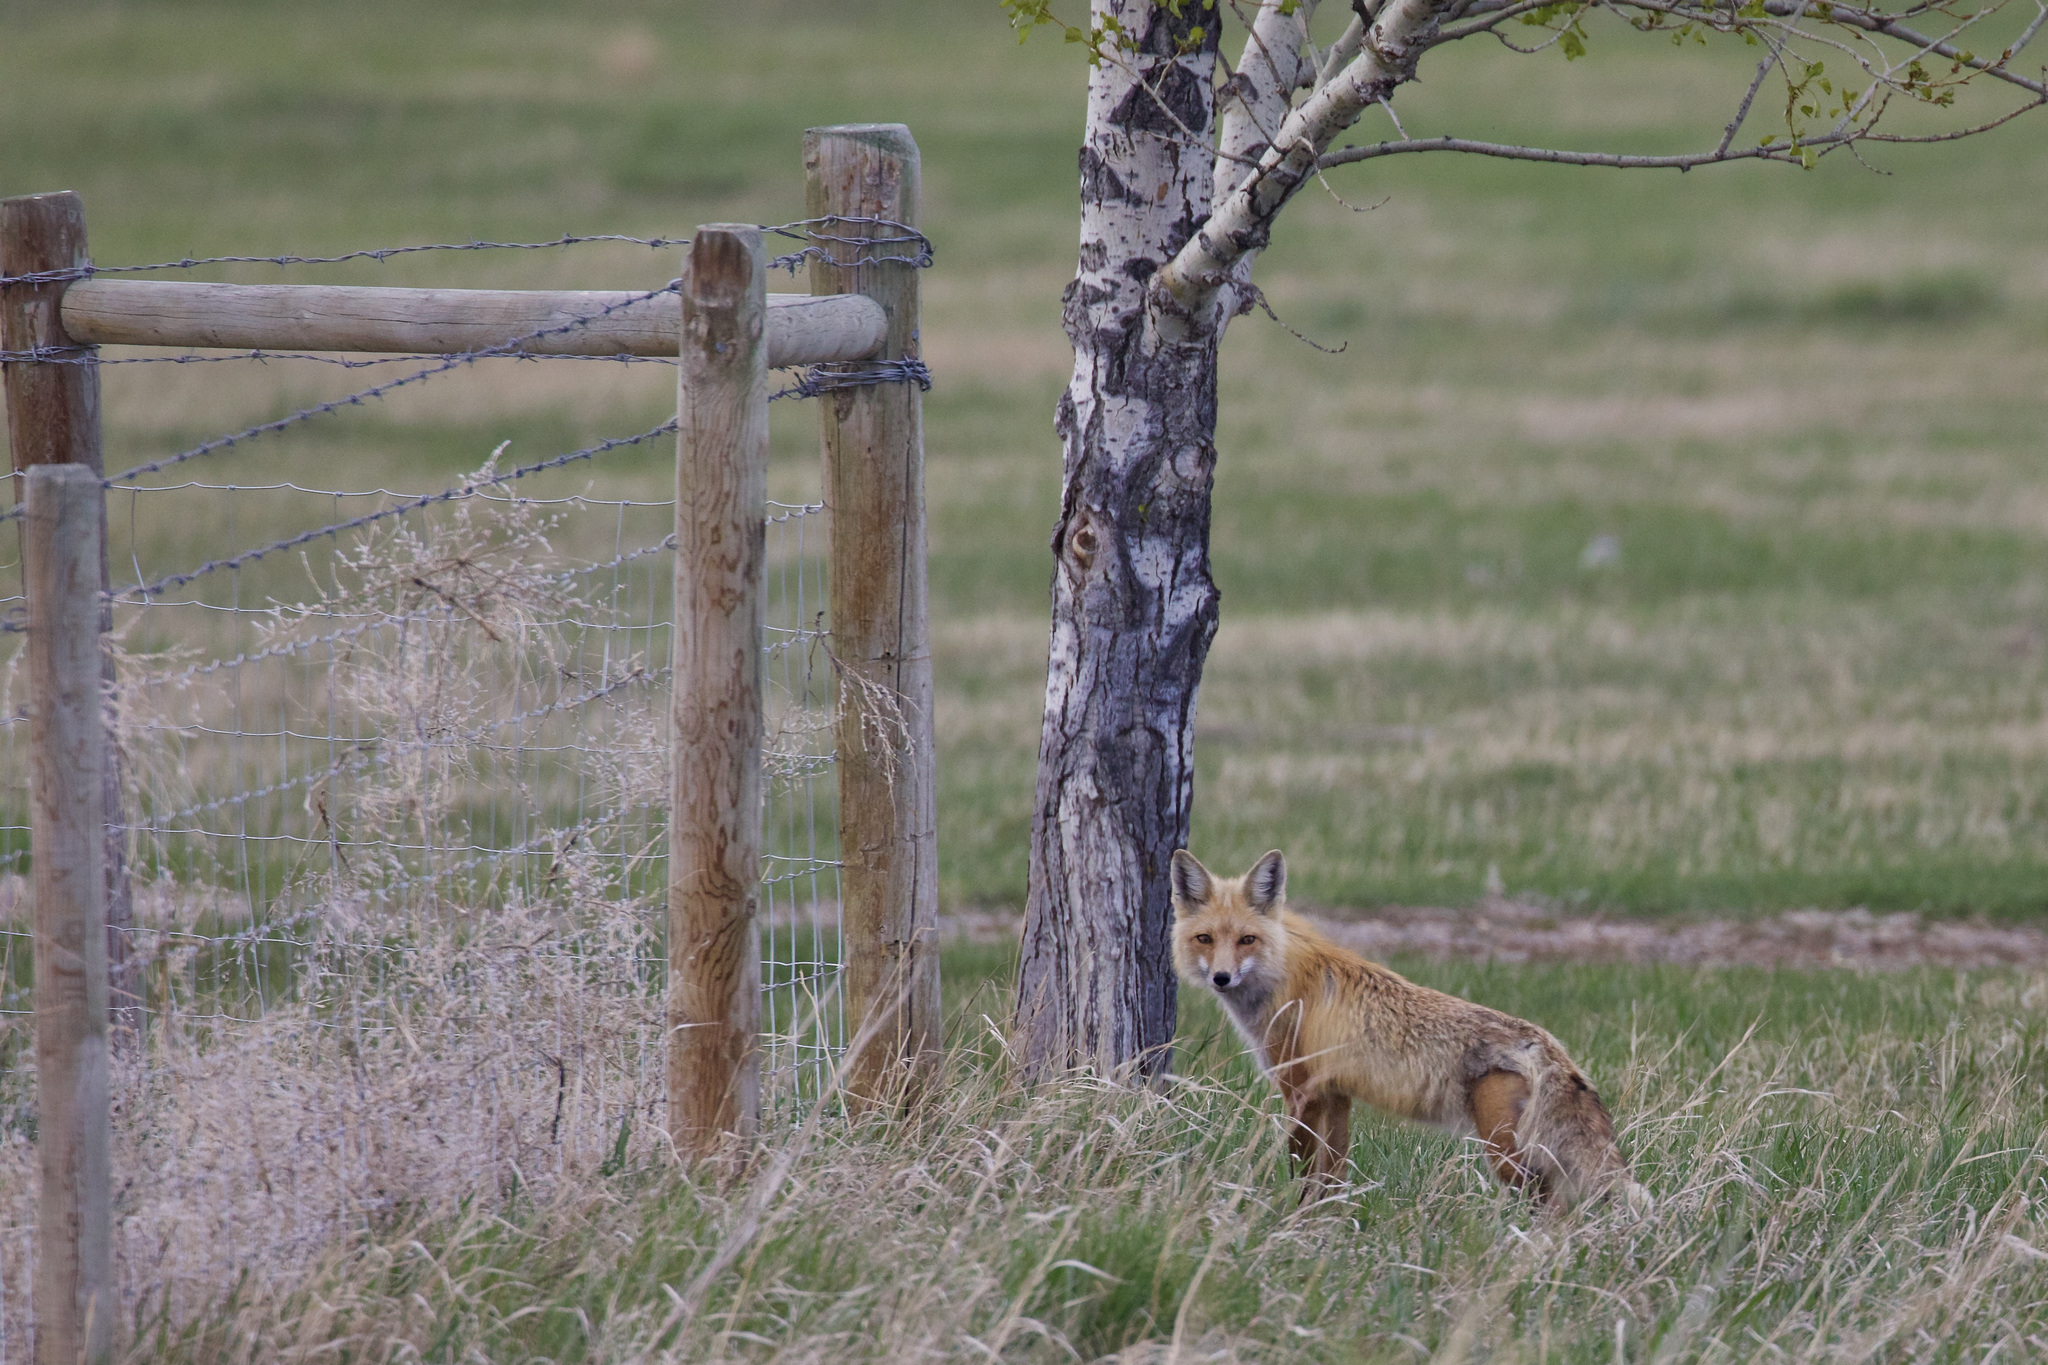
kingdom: Animalia
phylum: Chordata
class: Mammalia
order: Carnivora
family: Canidae
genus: Vulpes
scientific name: Vulpes vulpes
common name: Red fox
